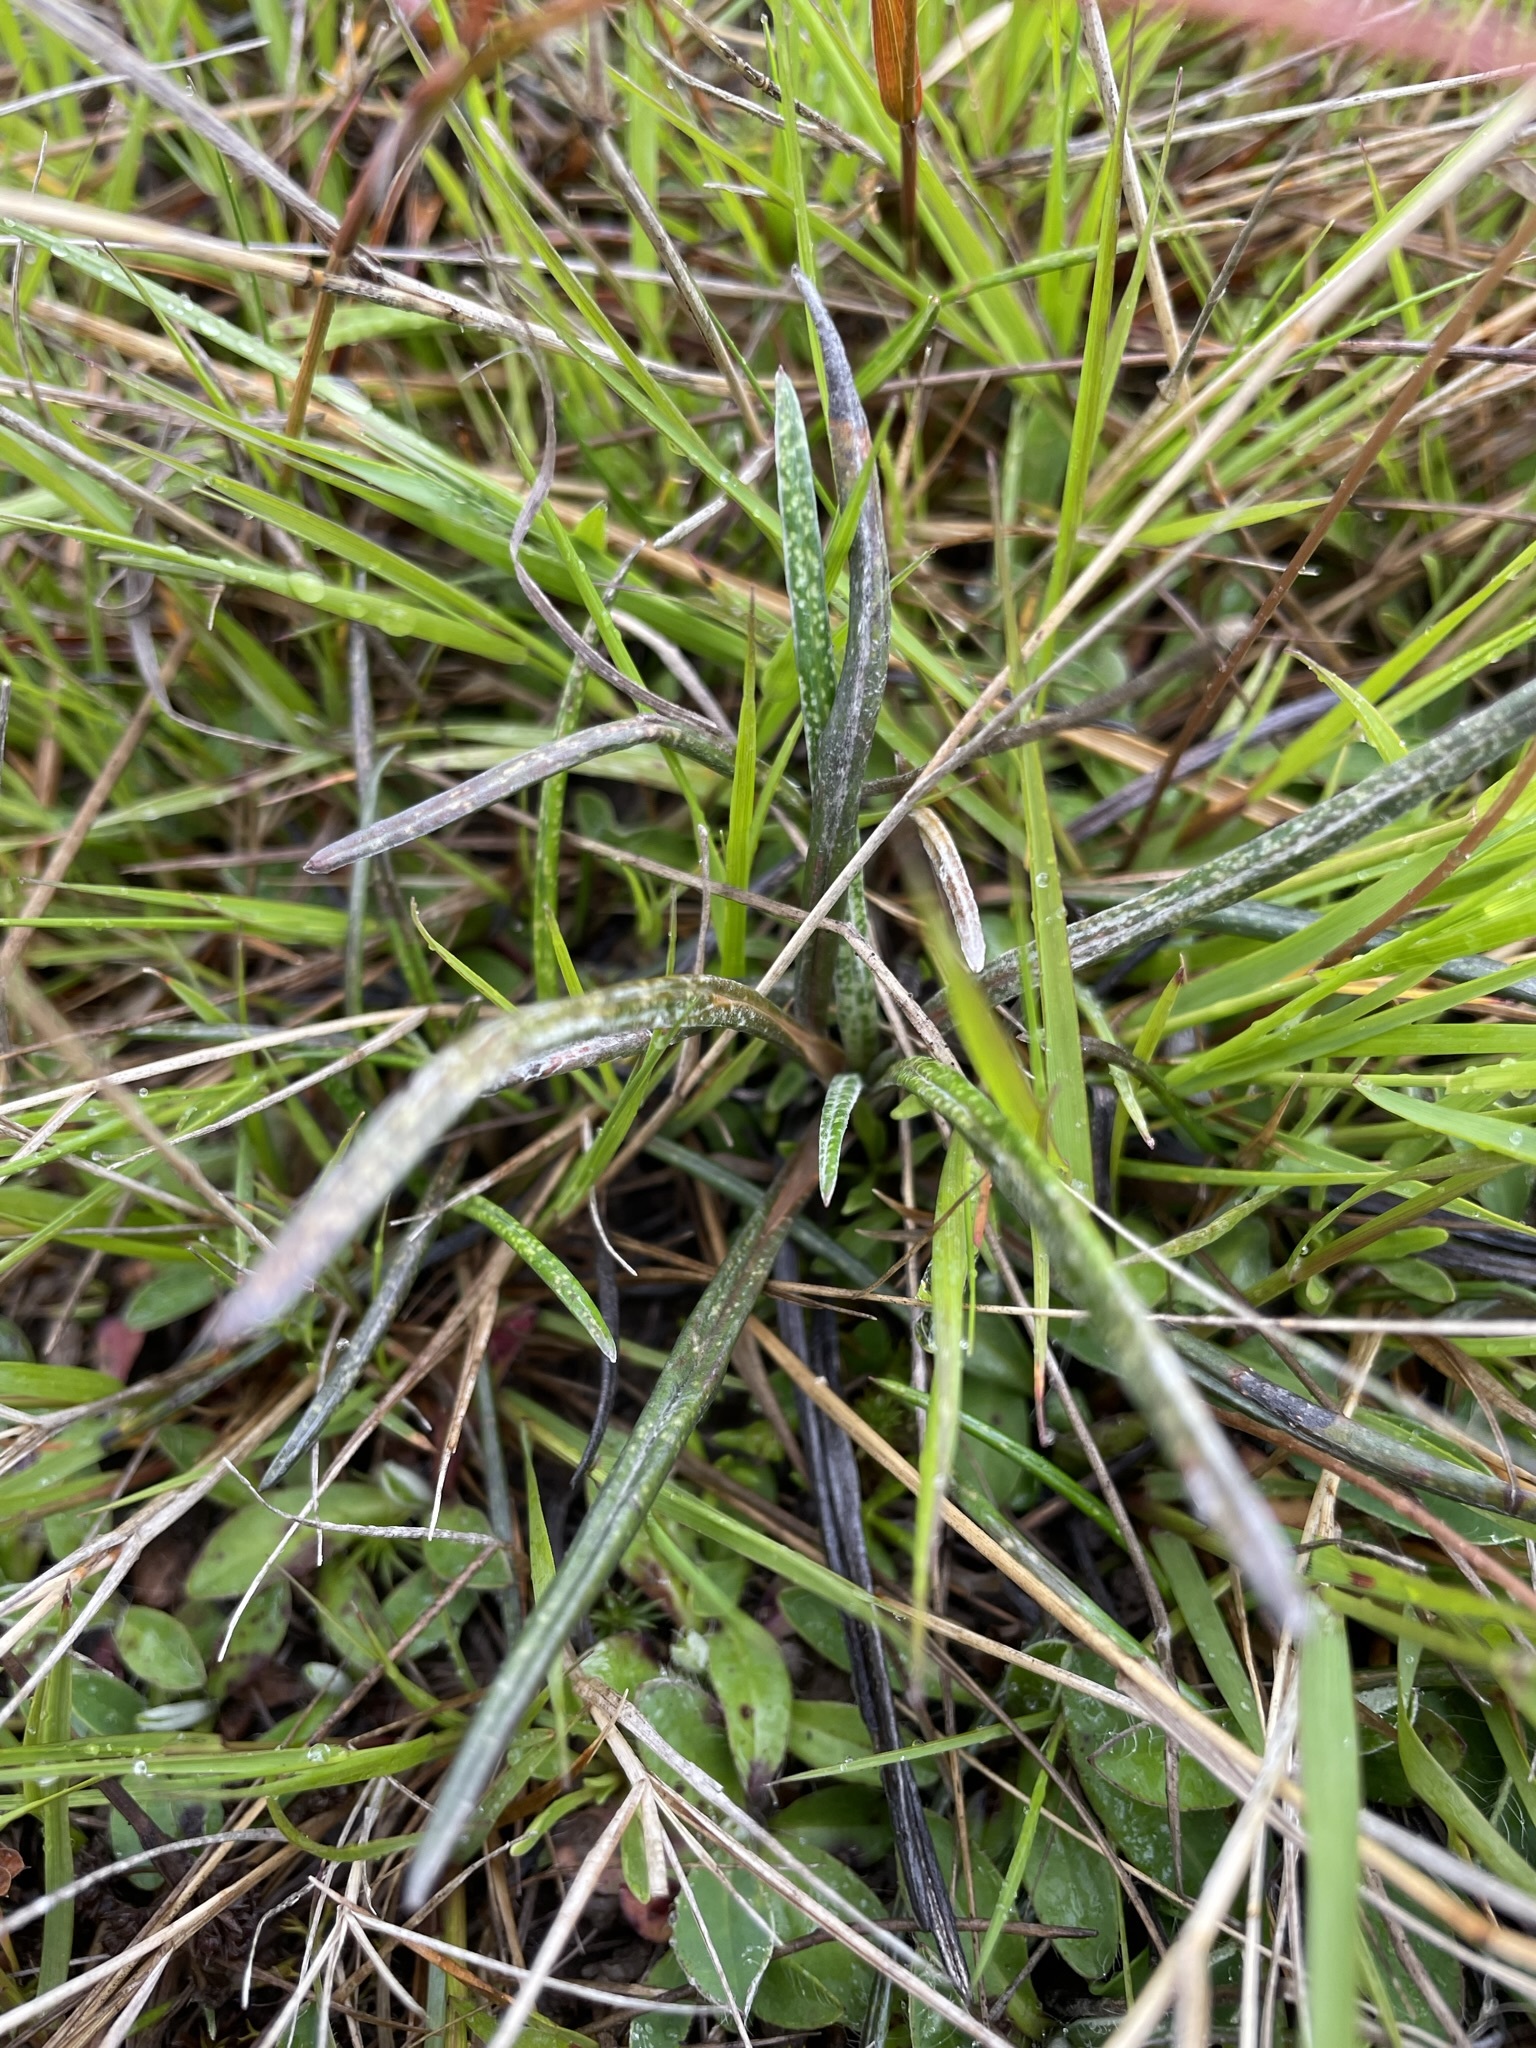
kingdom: Plantae
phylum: Tracheophyta
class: Magnoliopsida
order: Asterales
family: Asteraceae
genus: Celmisia
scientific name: Celmisia gracilenta
